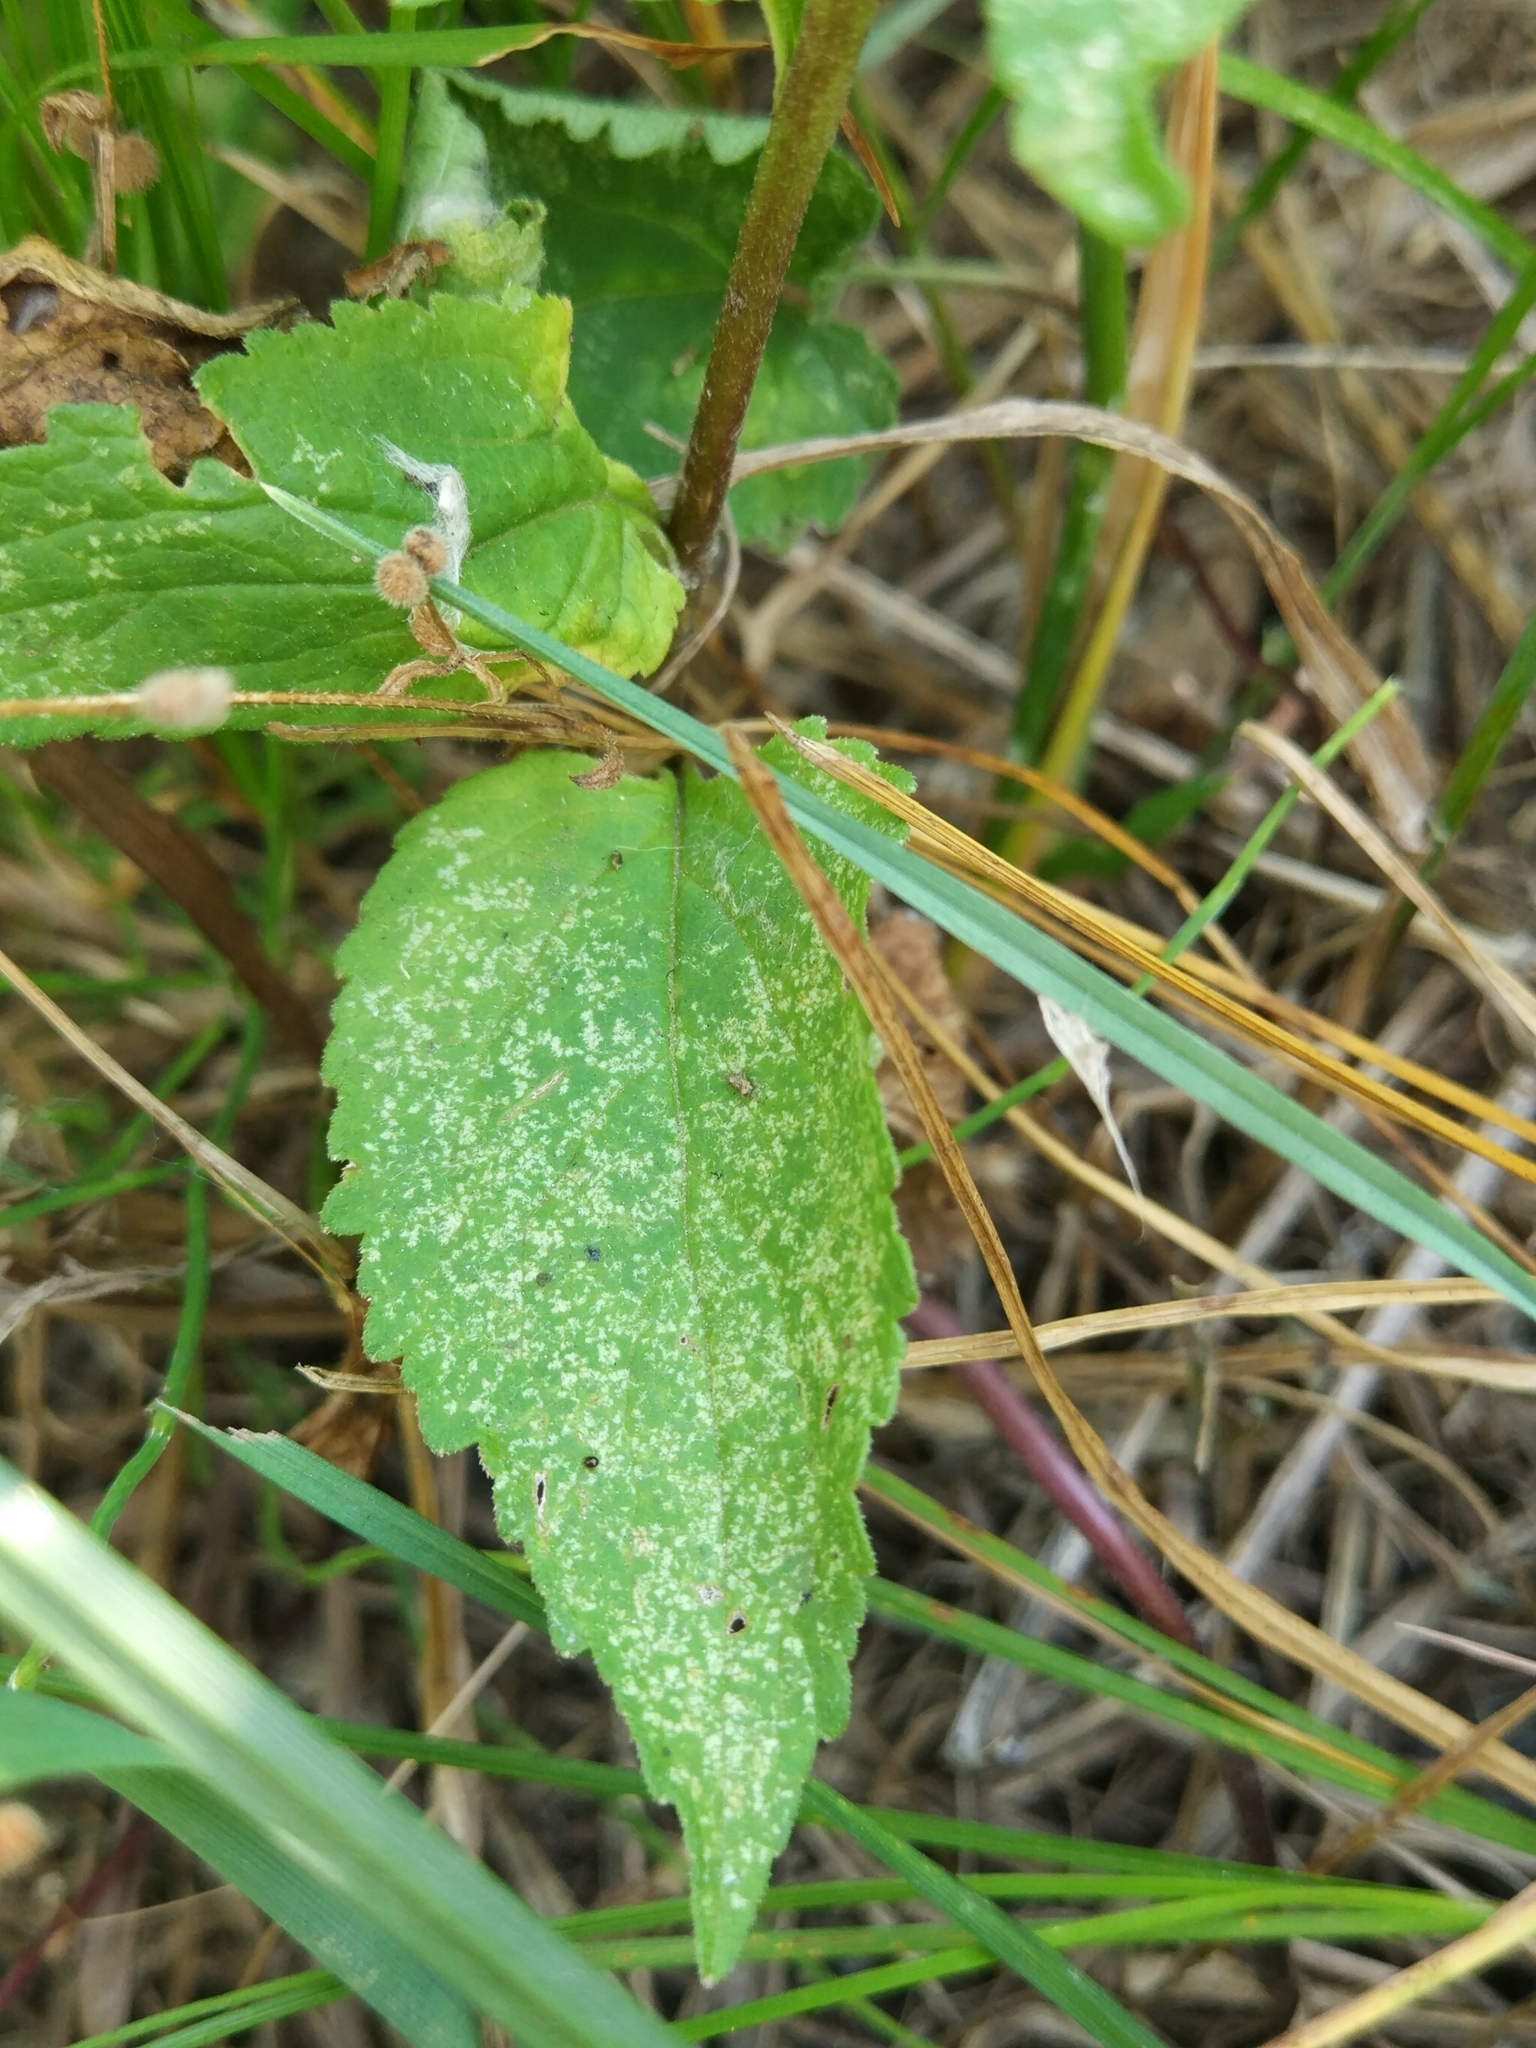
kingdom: Plantae
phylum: Tracheophyta
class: Magnoliopsida
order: Asterales
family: Campanulaceae
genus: Campanula
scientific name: Campanula rapunculoides
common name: Creeping bellflower
